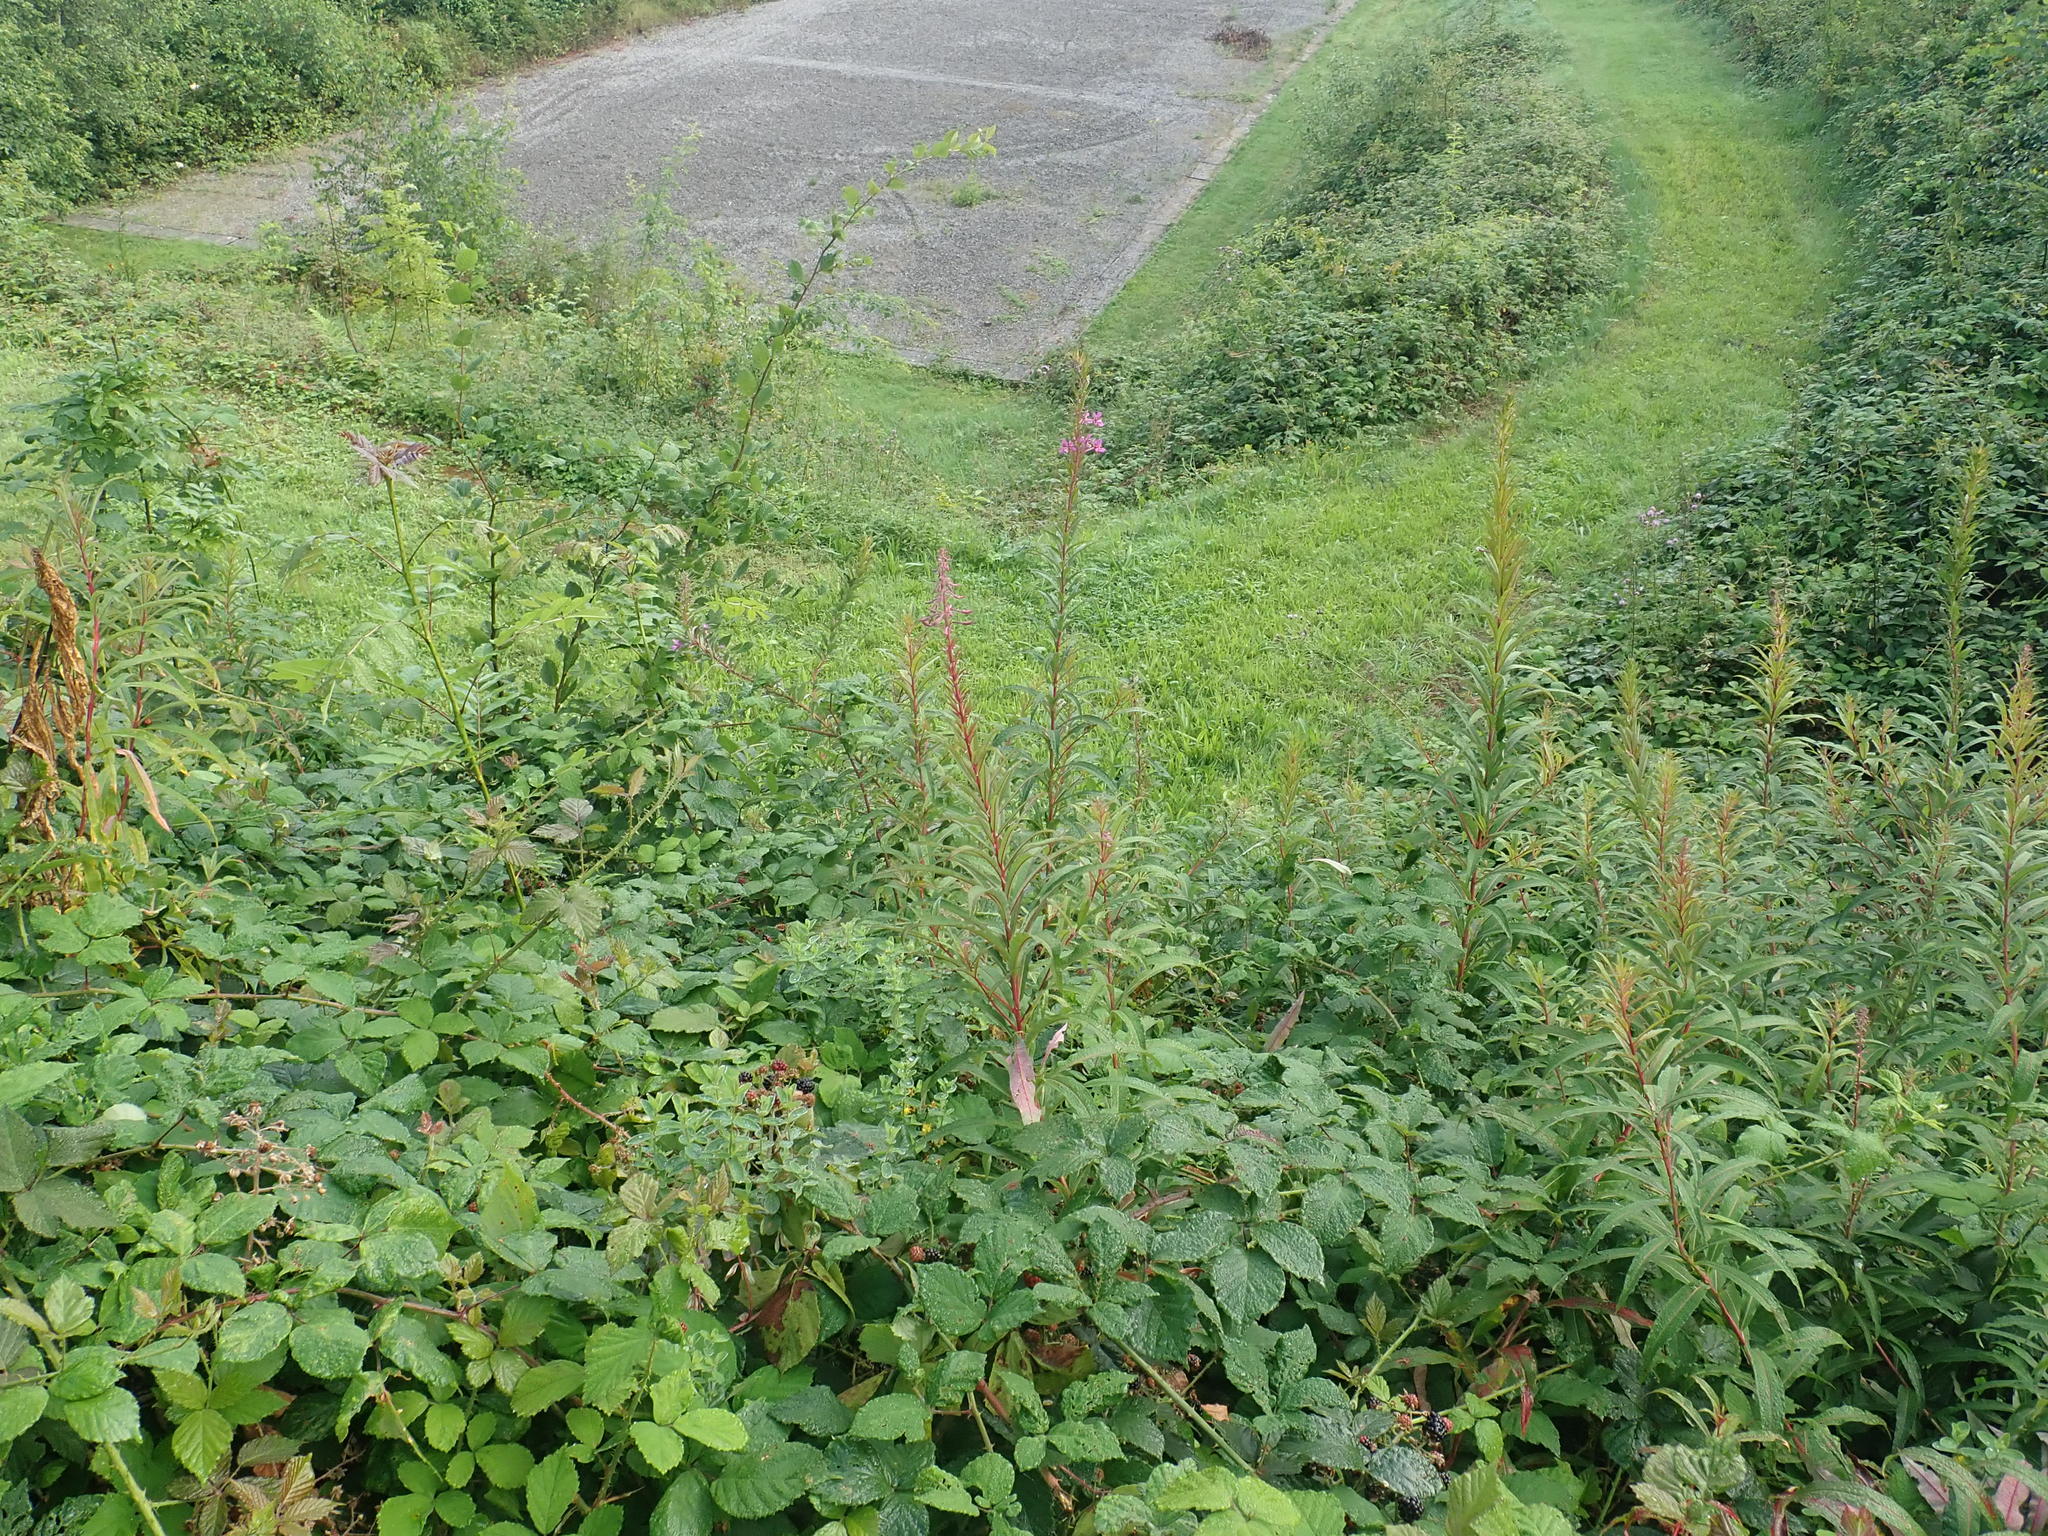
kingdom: Plantae
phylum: Tracheophyta
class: Magnoliopsida
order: Myrtales
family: Onagraceae
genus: Chamaenerion
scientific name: Chamaenerion angustifolium
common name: Fireweed
